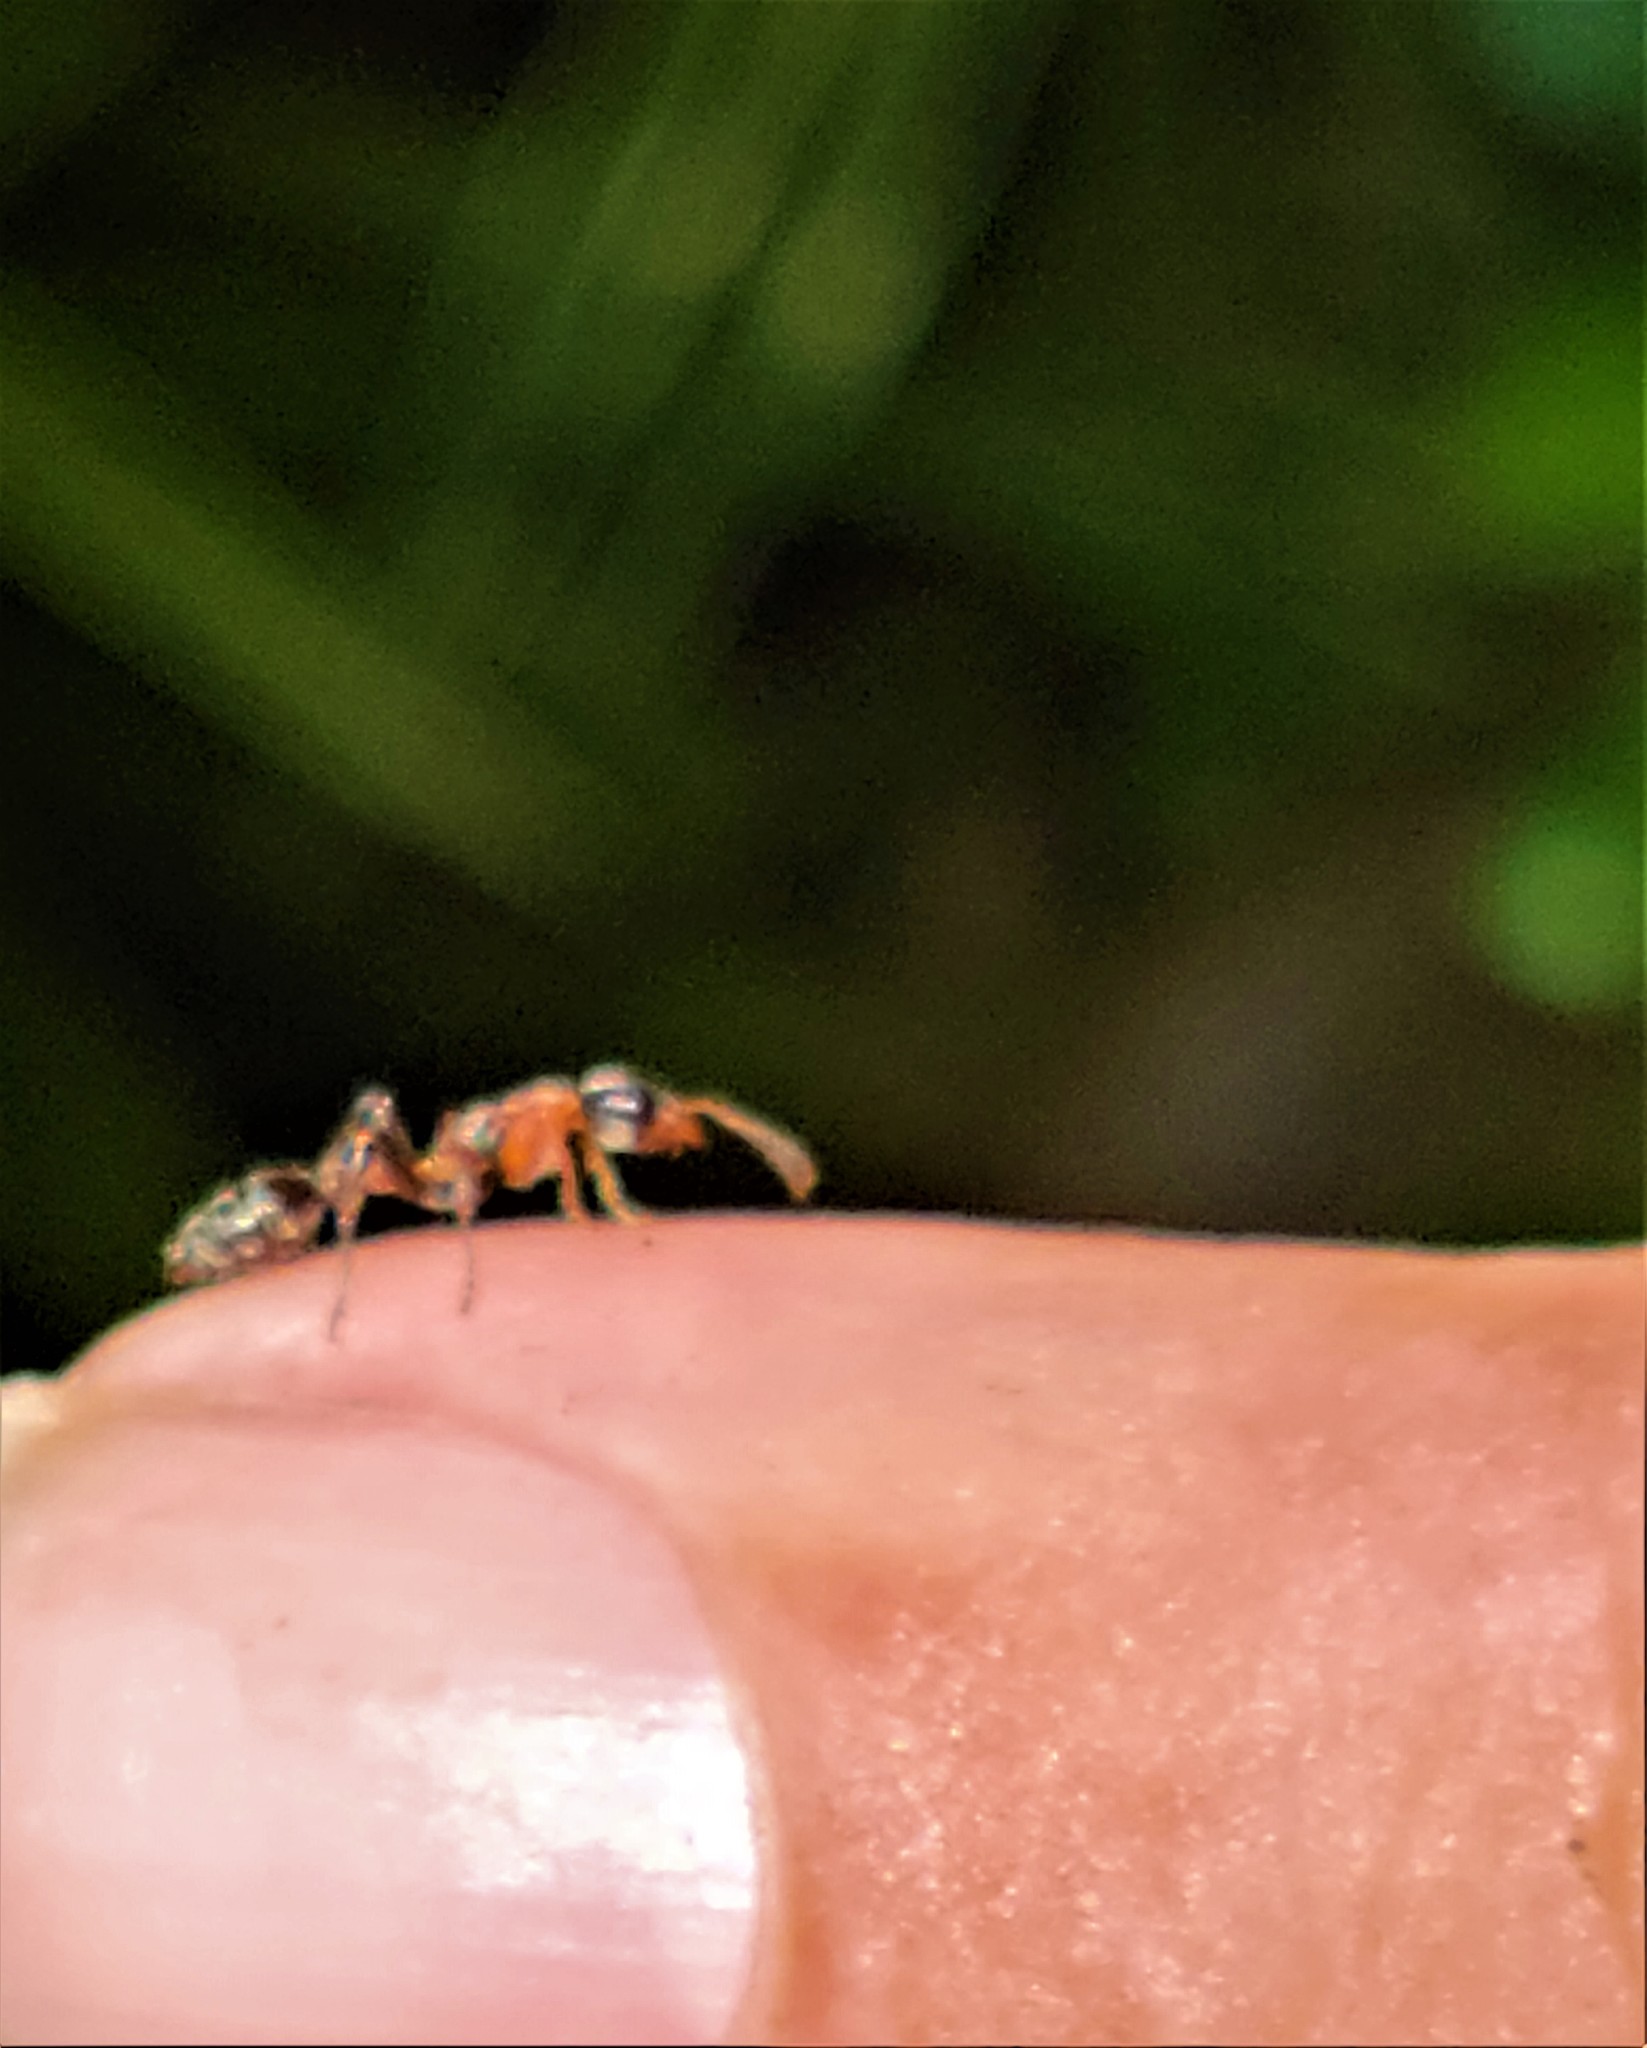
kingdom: Animalia
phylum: Arthropoda
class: Insecta
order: Hymenoptera
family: Formicidae
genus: Pseudomyrmex
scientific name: Pseudomyrmex gracilis
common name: Graceful twig ant
